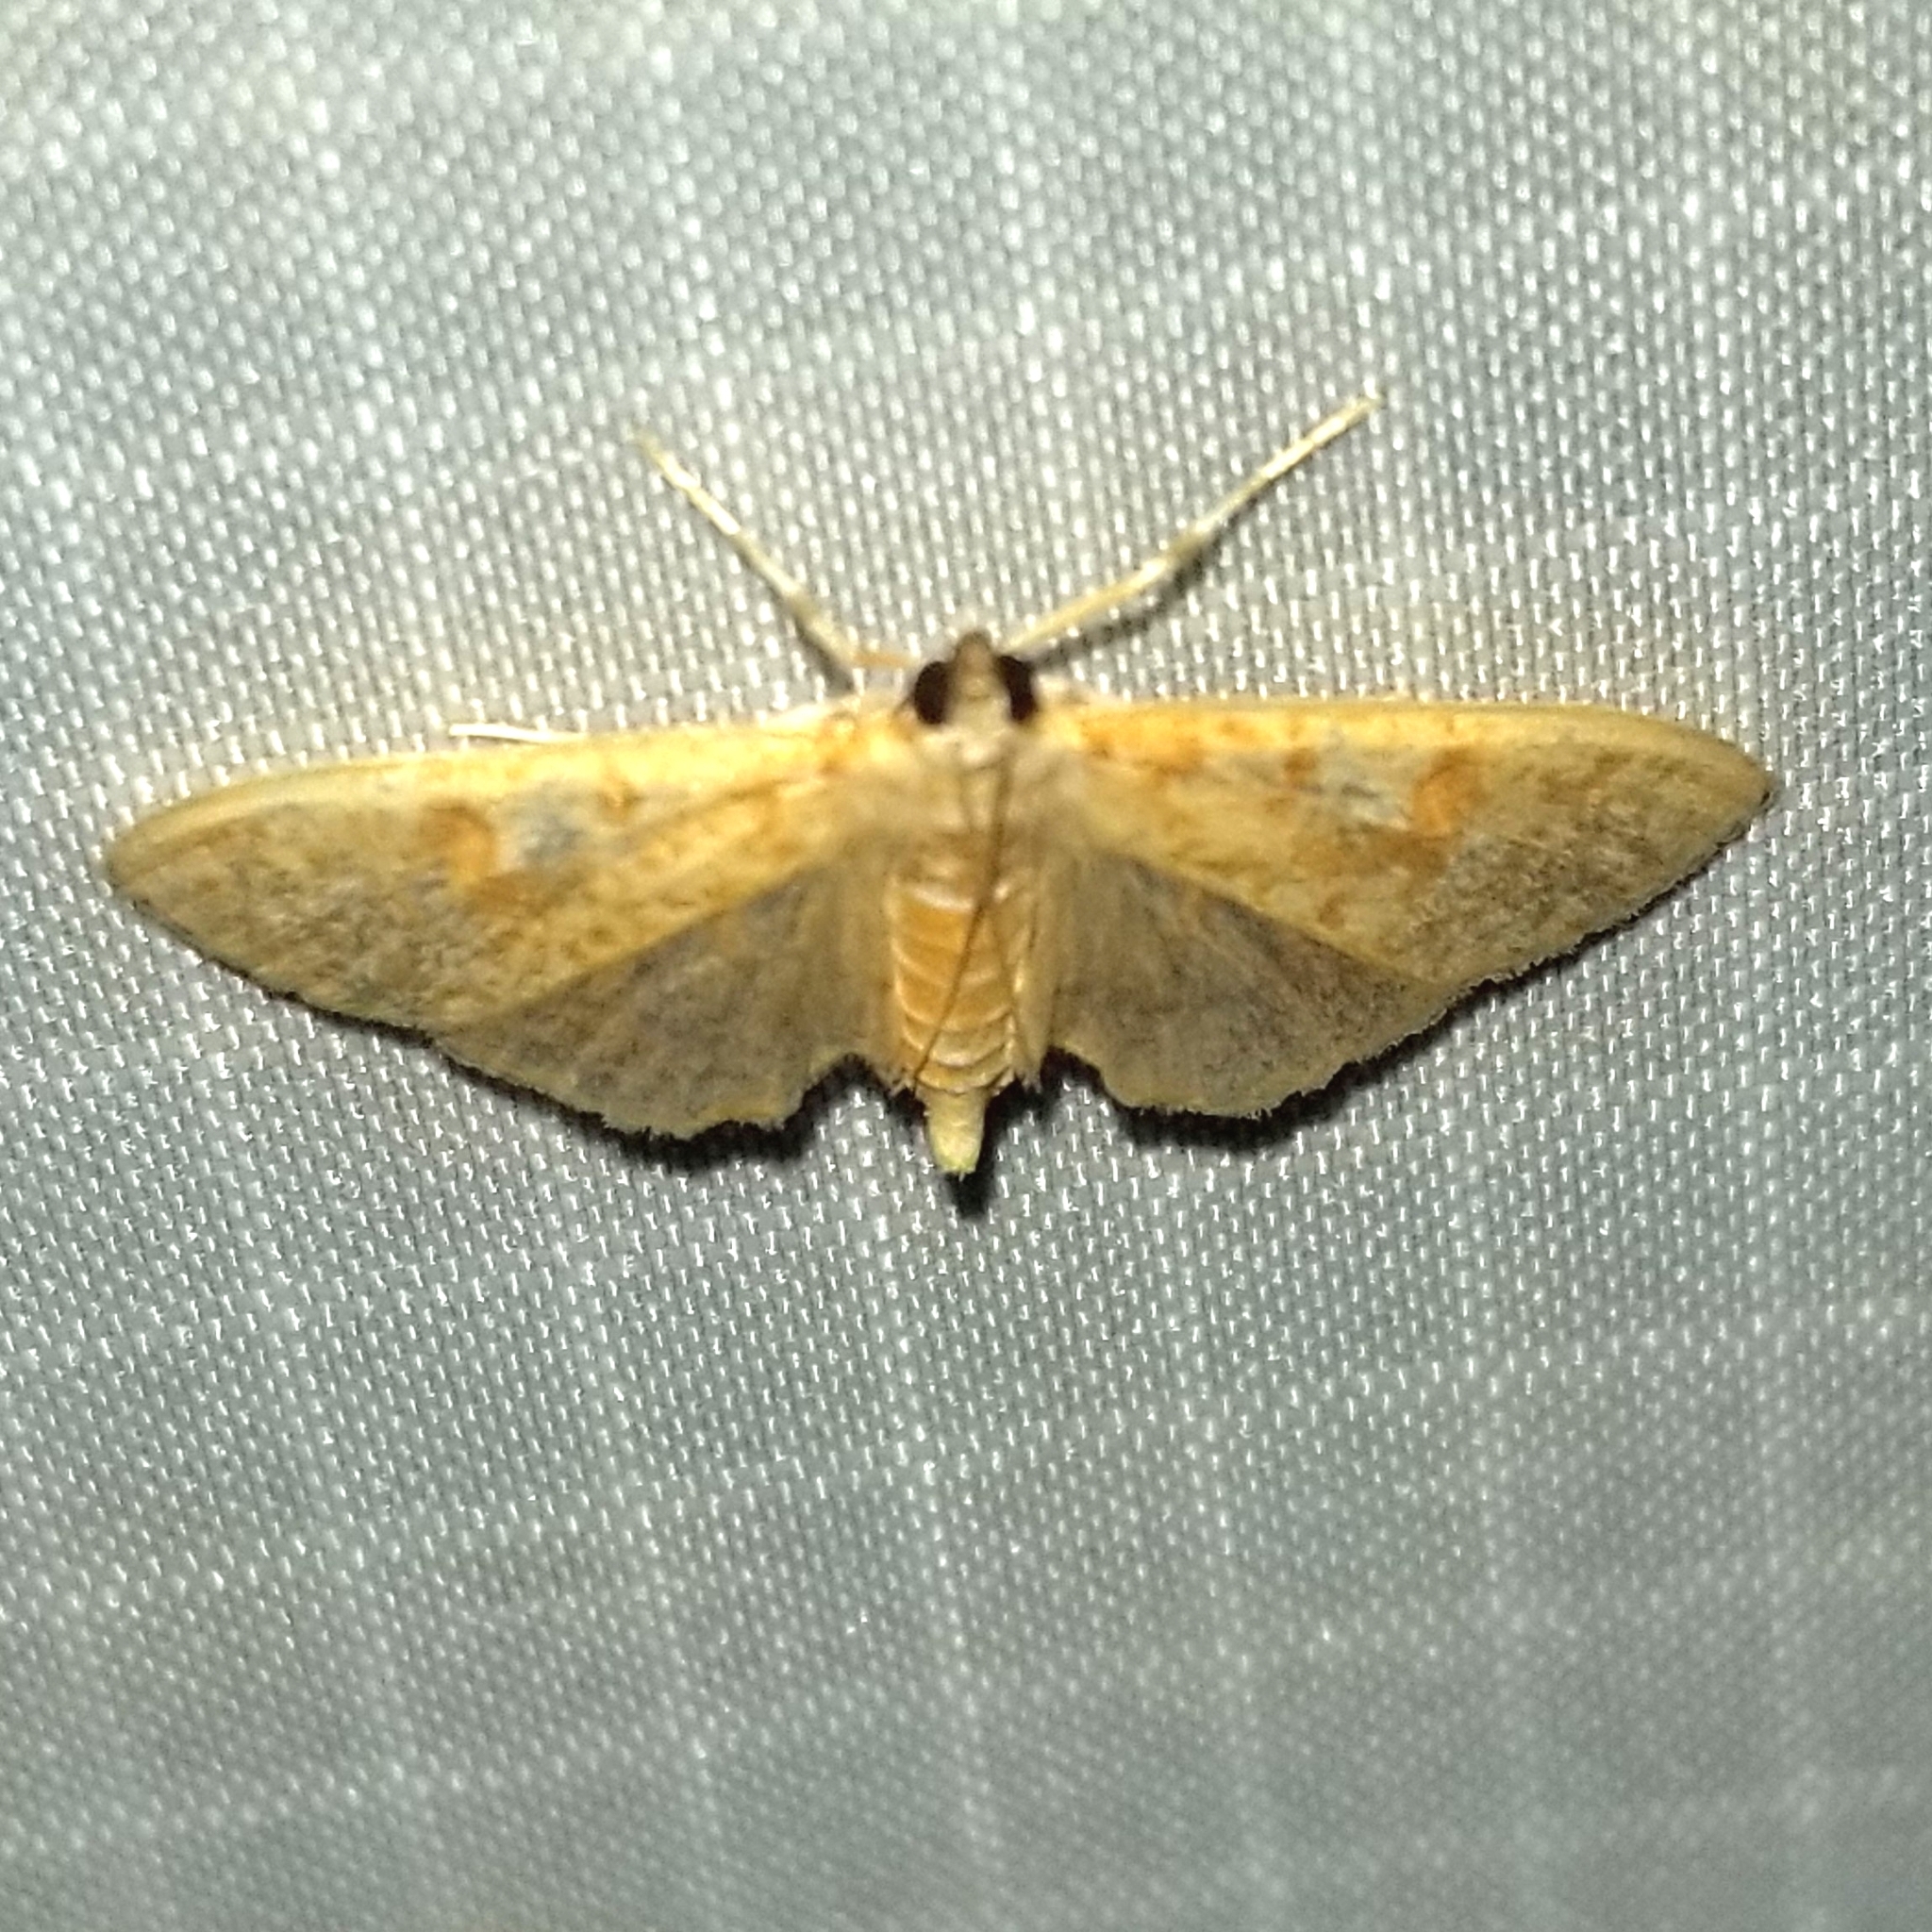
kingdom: Animalia
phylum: Arthropoda
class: Insecta
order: Lepidoptera
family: Crambidae
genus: Palpita
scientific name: Palpita freemanalis
